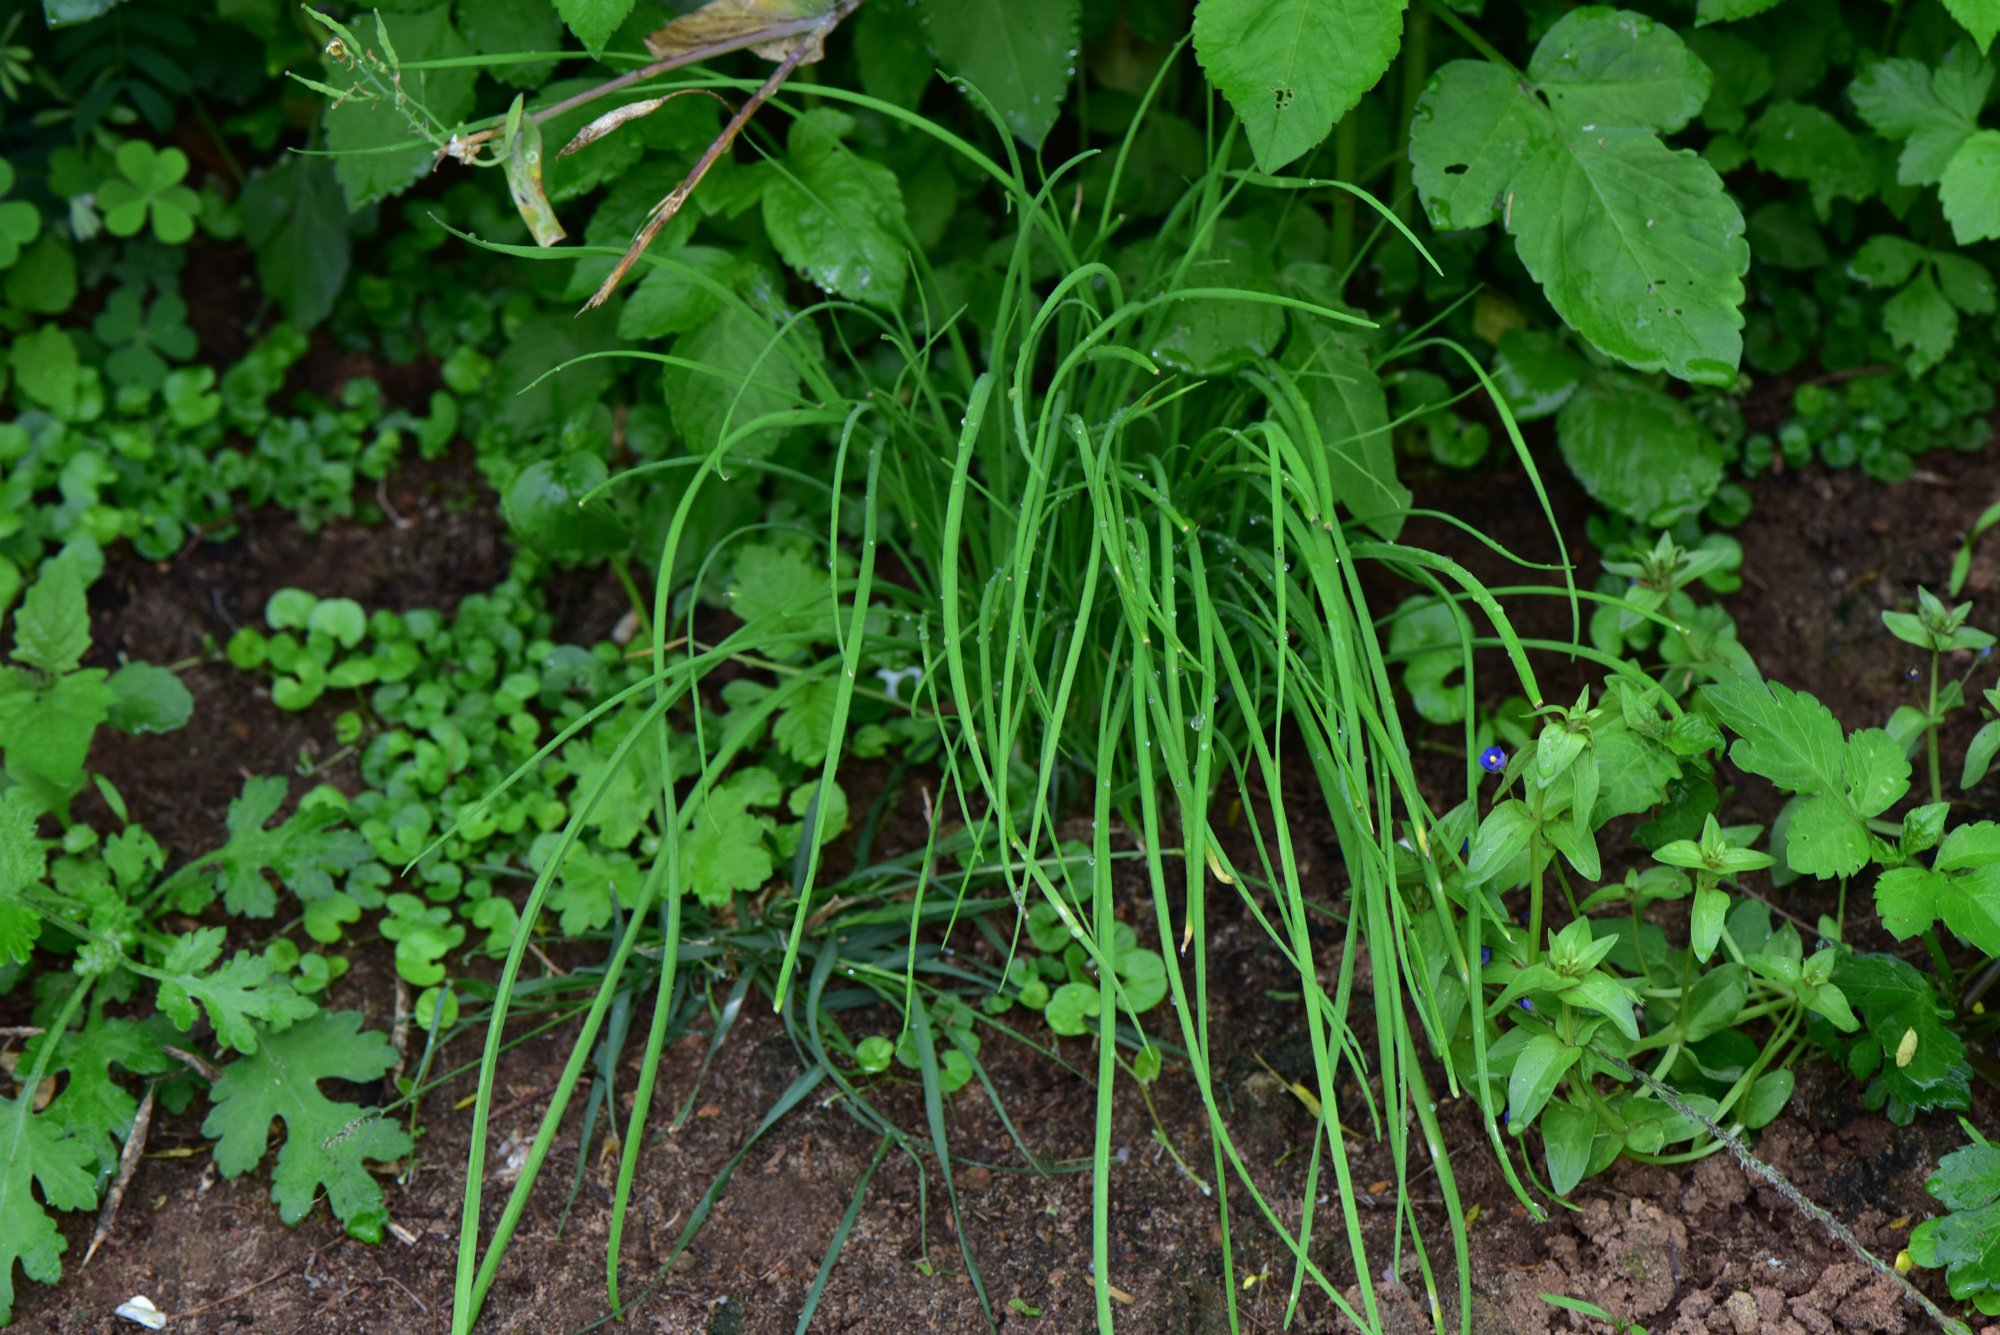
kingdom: Plantae
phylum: Tracheophyta
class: Liliopsida
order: Asparagales
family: Amaryllidaceae
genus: Allium
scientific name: Allium macrostemon
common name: Chinese garlic
